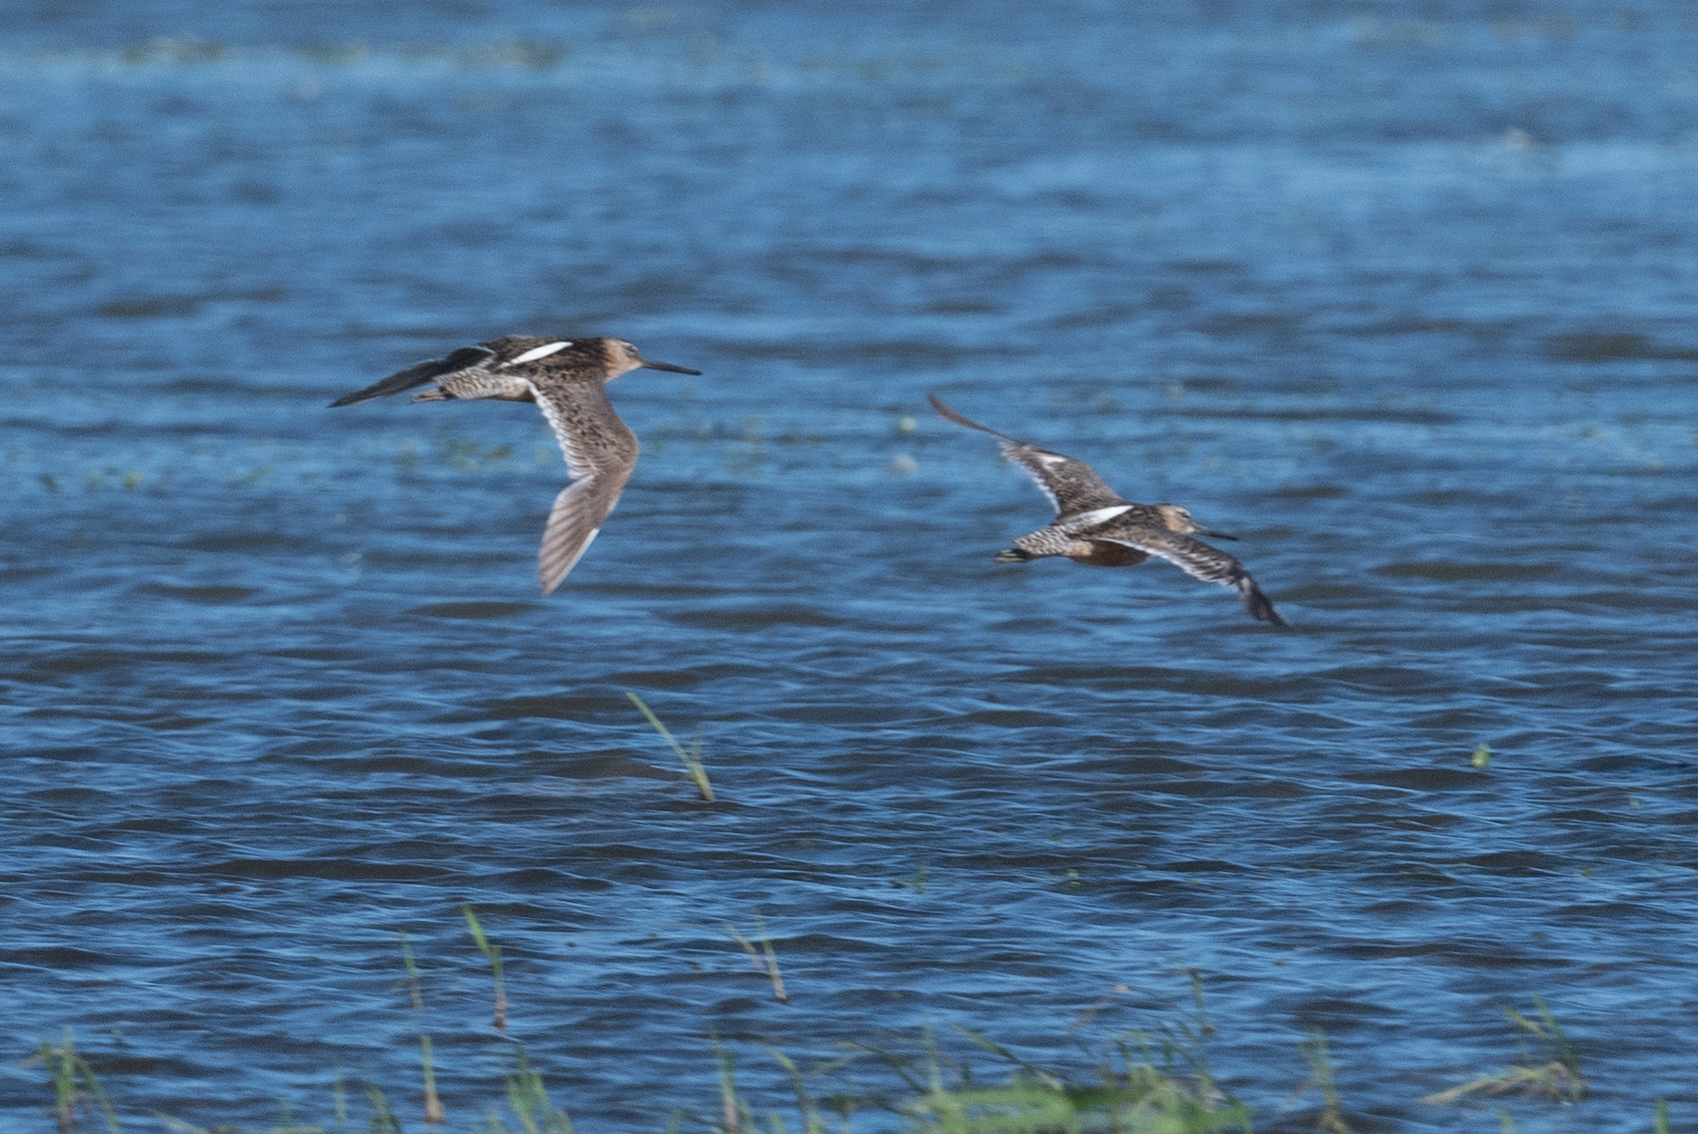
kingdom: Animalia
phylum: Chordata
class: Aves
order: Charadriiformes
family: Scolopacidae
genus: Limnodromus
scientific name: Limnodromus scolopaceus
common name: Long-billed dowitcher
